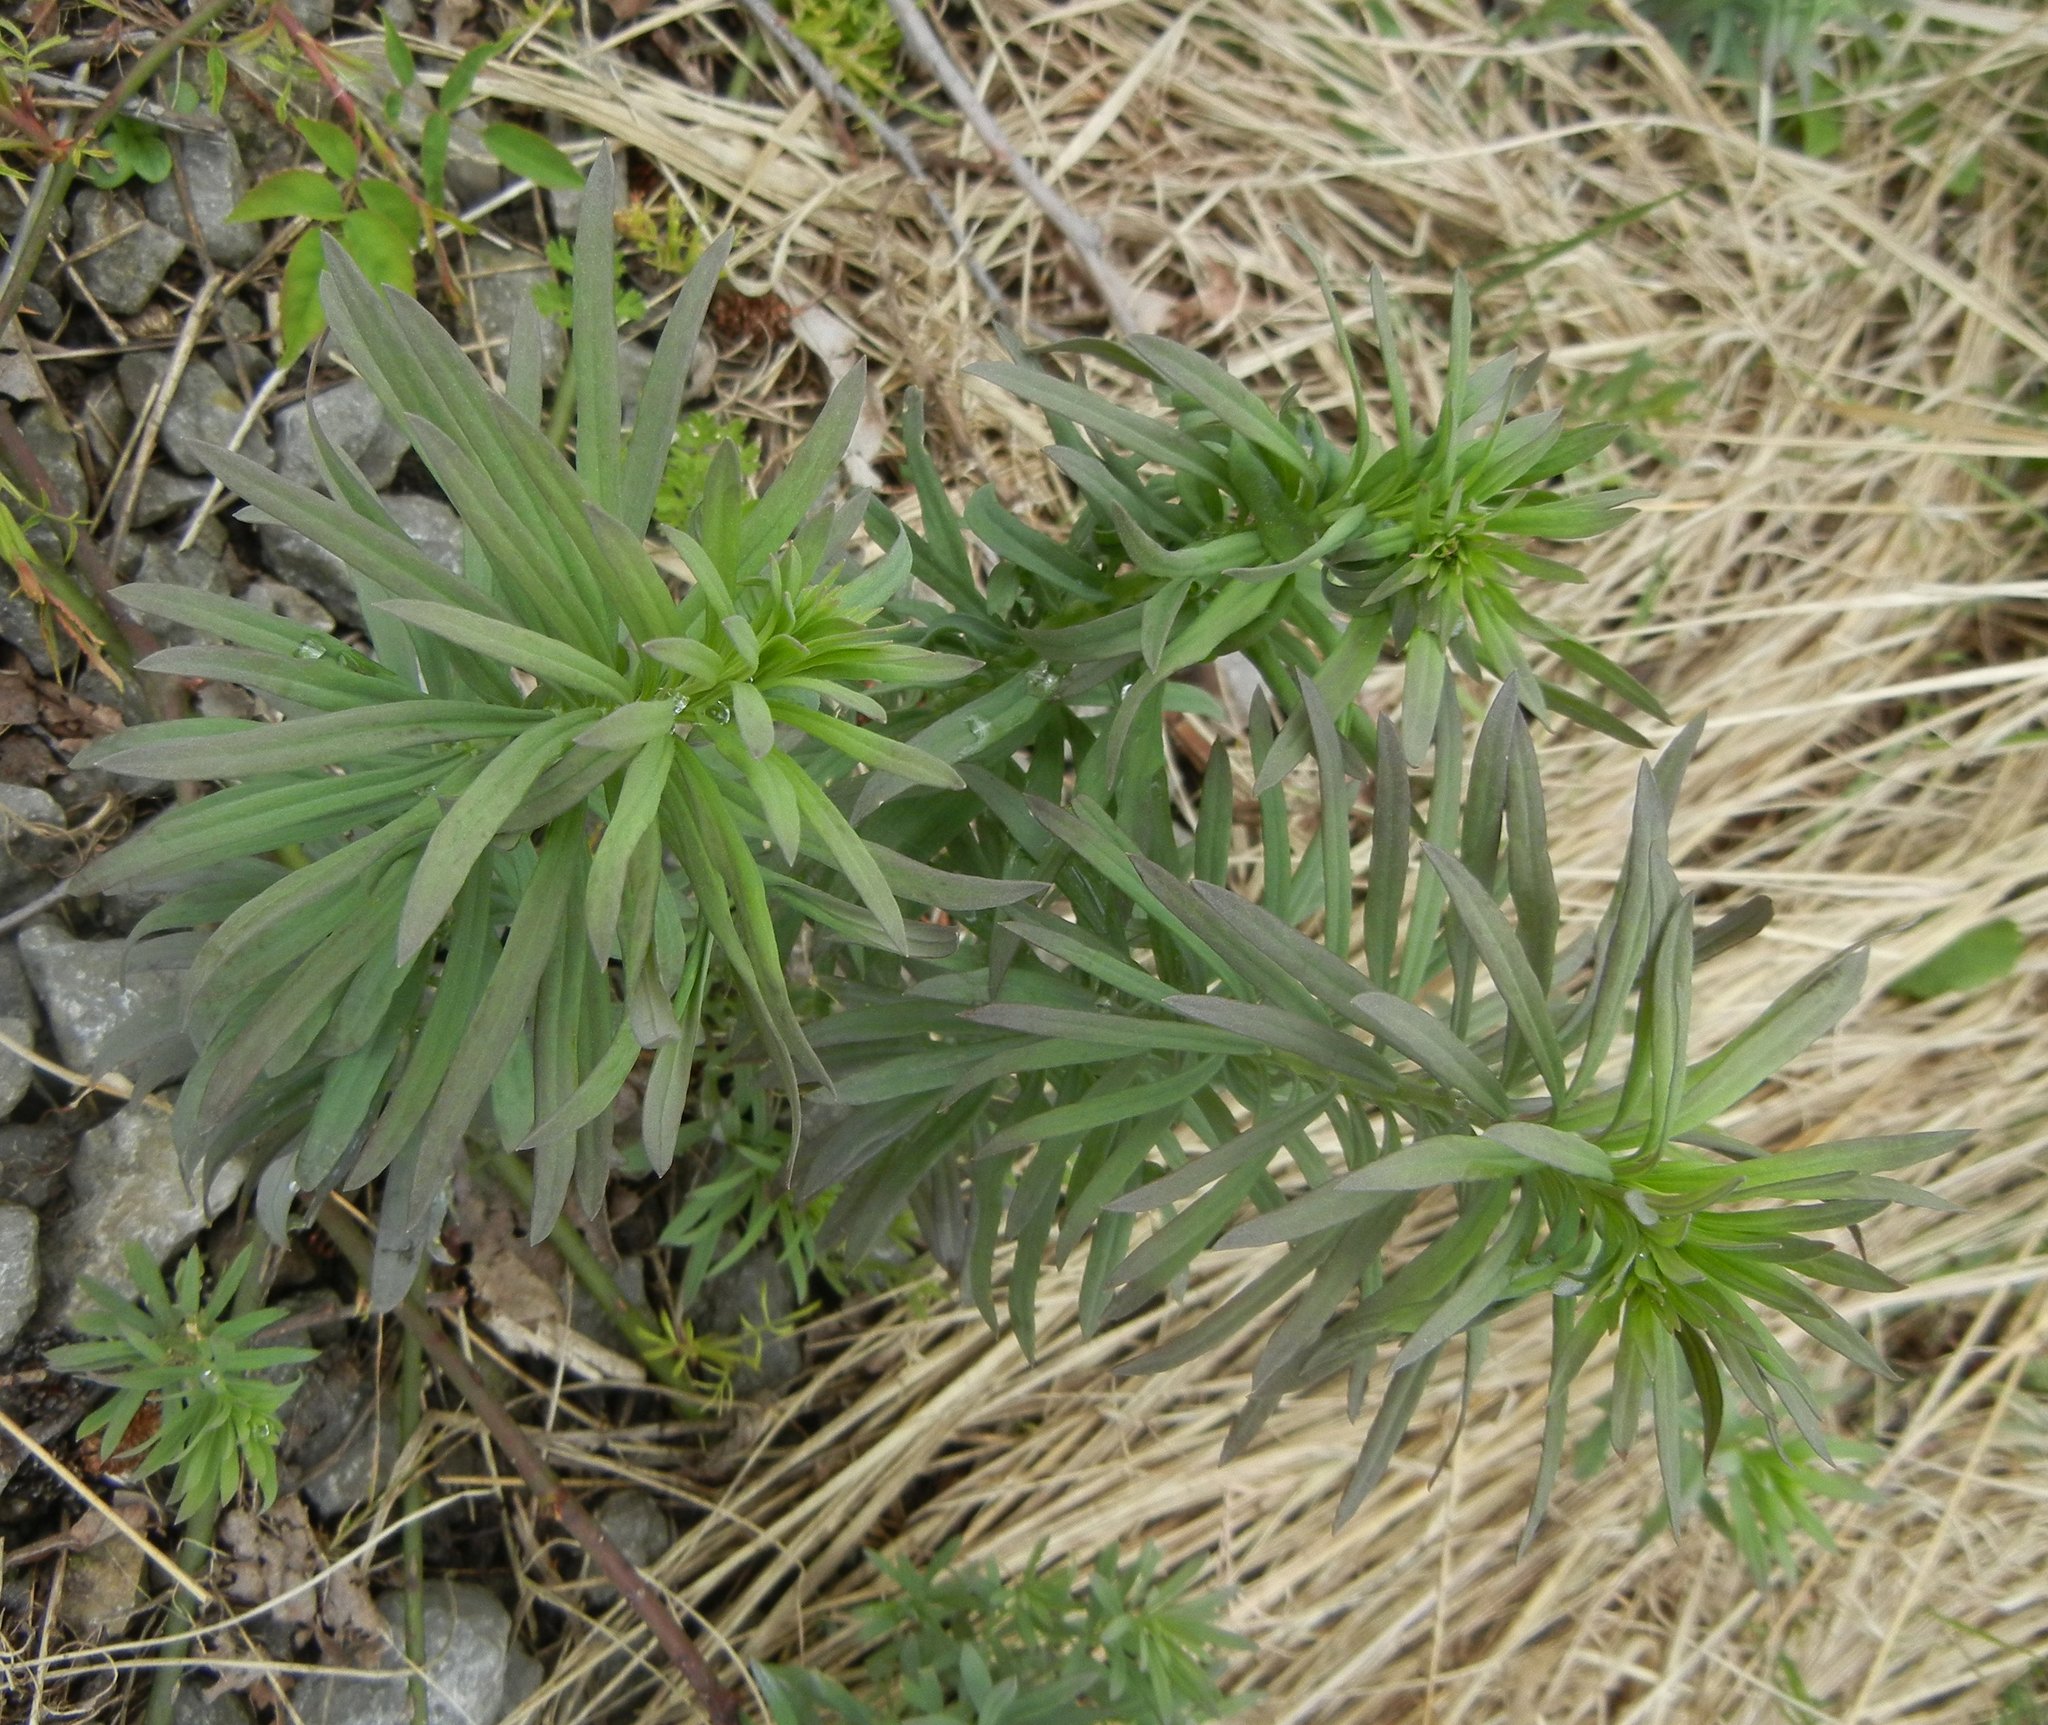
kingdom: Plantae
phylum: Tracheophyta
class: Magnoliopsida
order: Lamiales
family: Plantaginaceae
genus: Linaria
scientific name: Linaria vulgaris
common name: Butter and eggs
